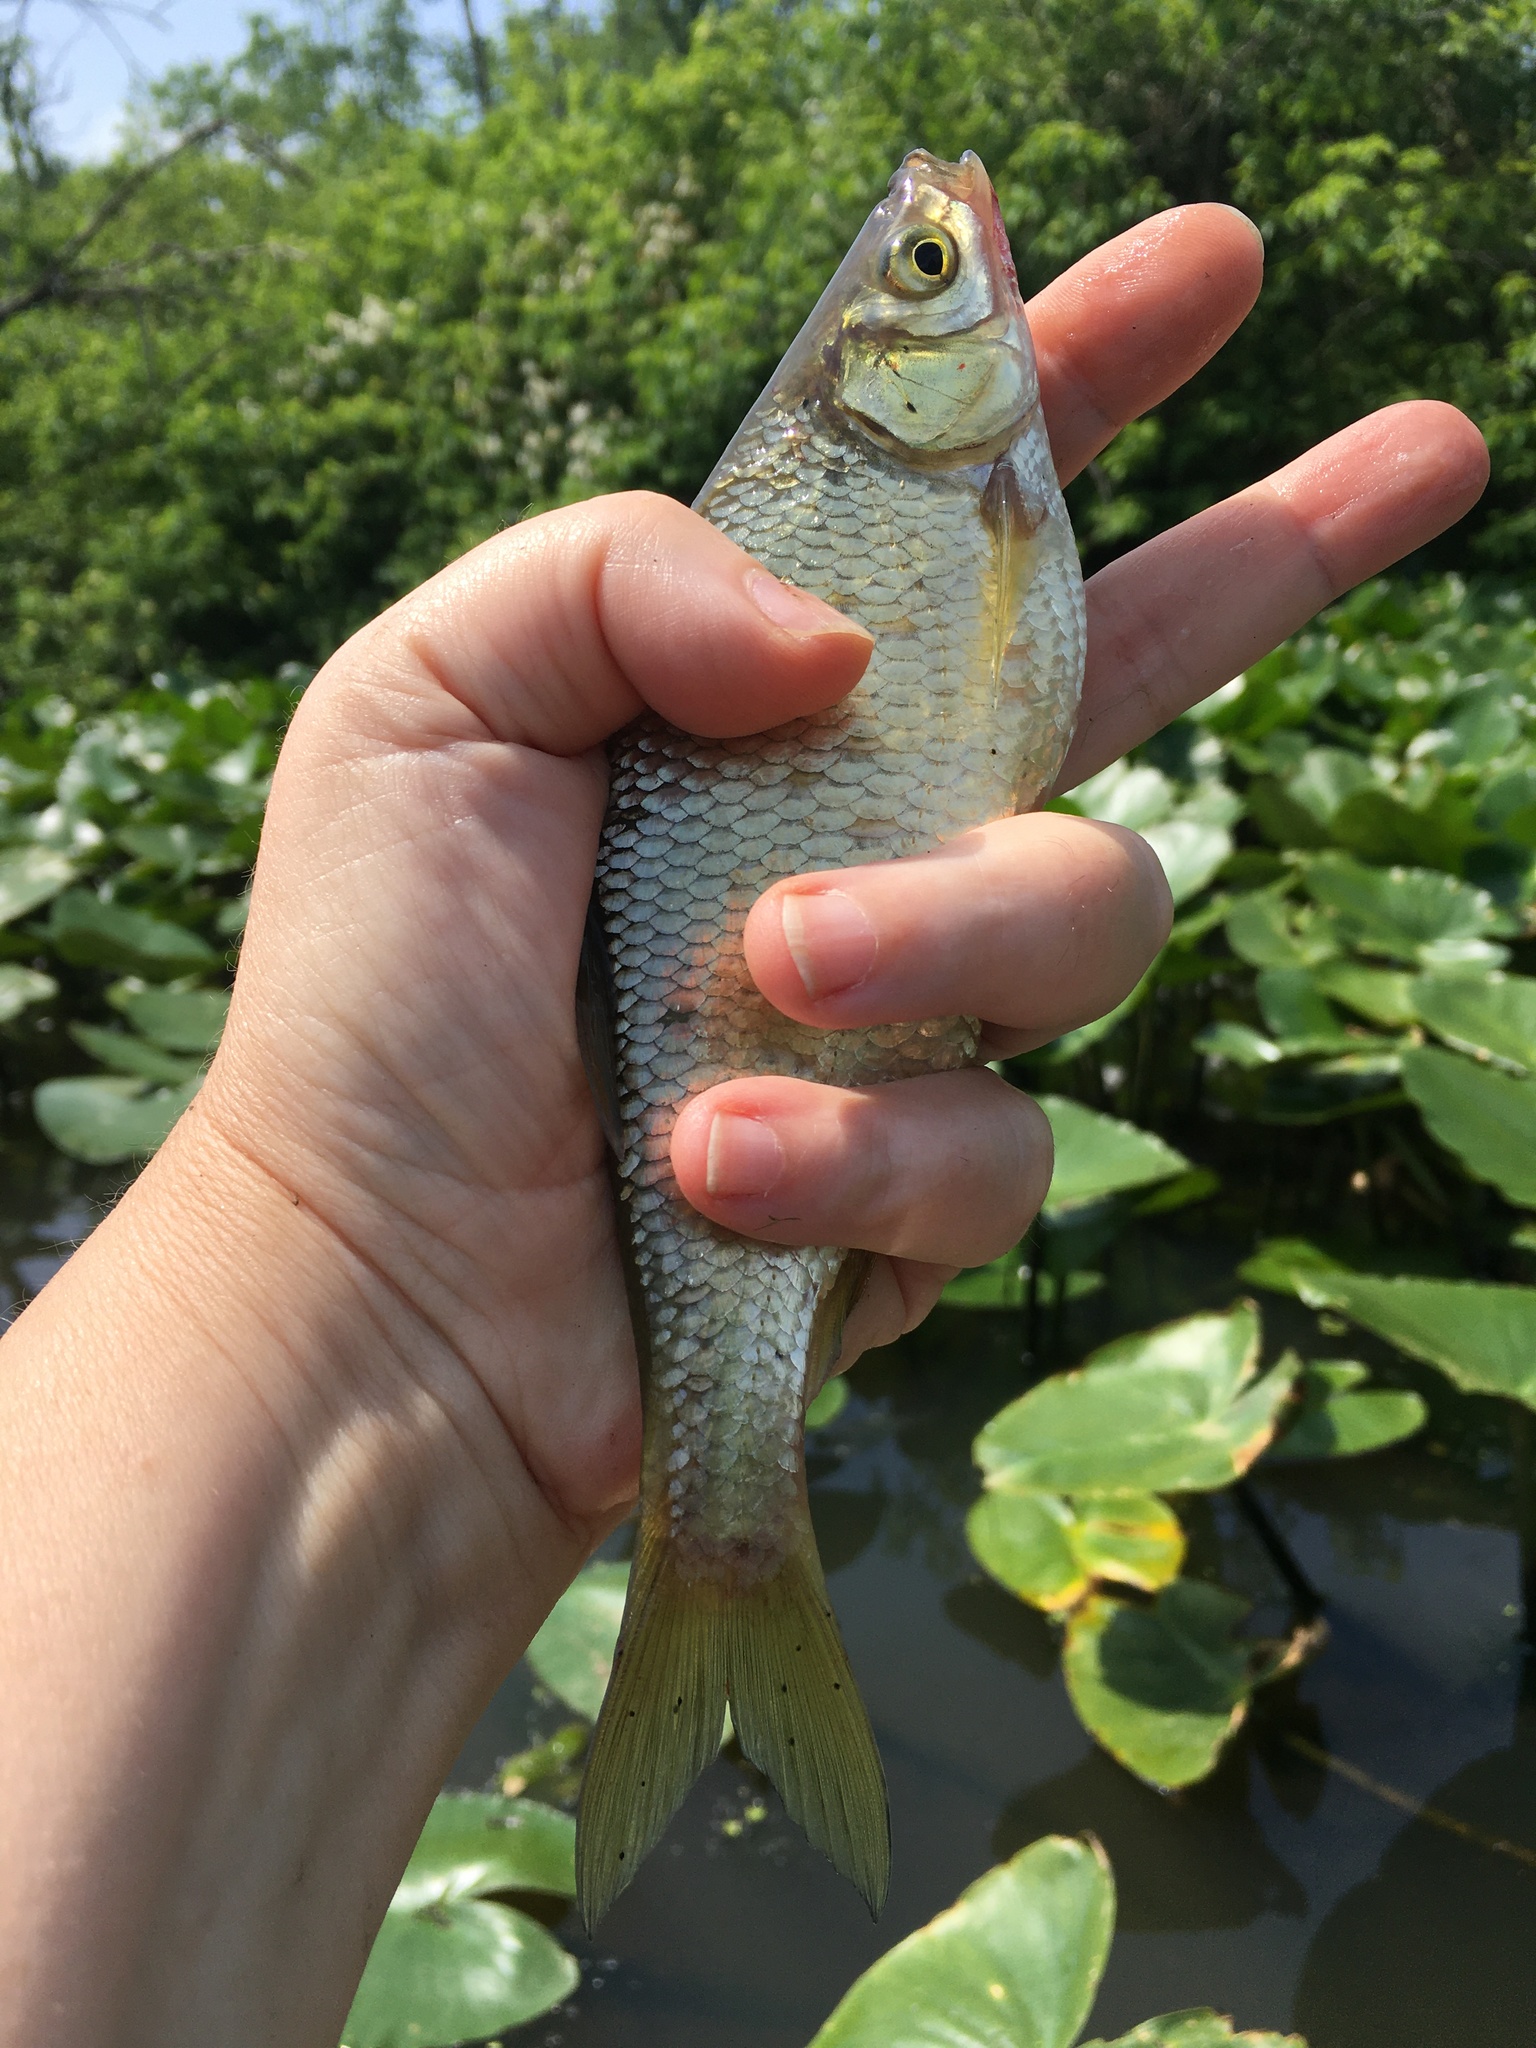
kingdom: Animalia
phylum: Chordata
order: Cypriniformes
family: Cyprinidae
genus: Notemigonus
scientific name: Notemigonus crysoleucas
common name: Golden shiner
